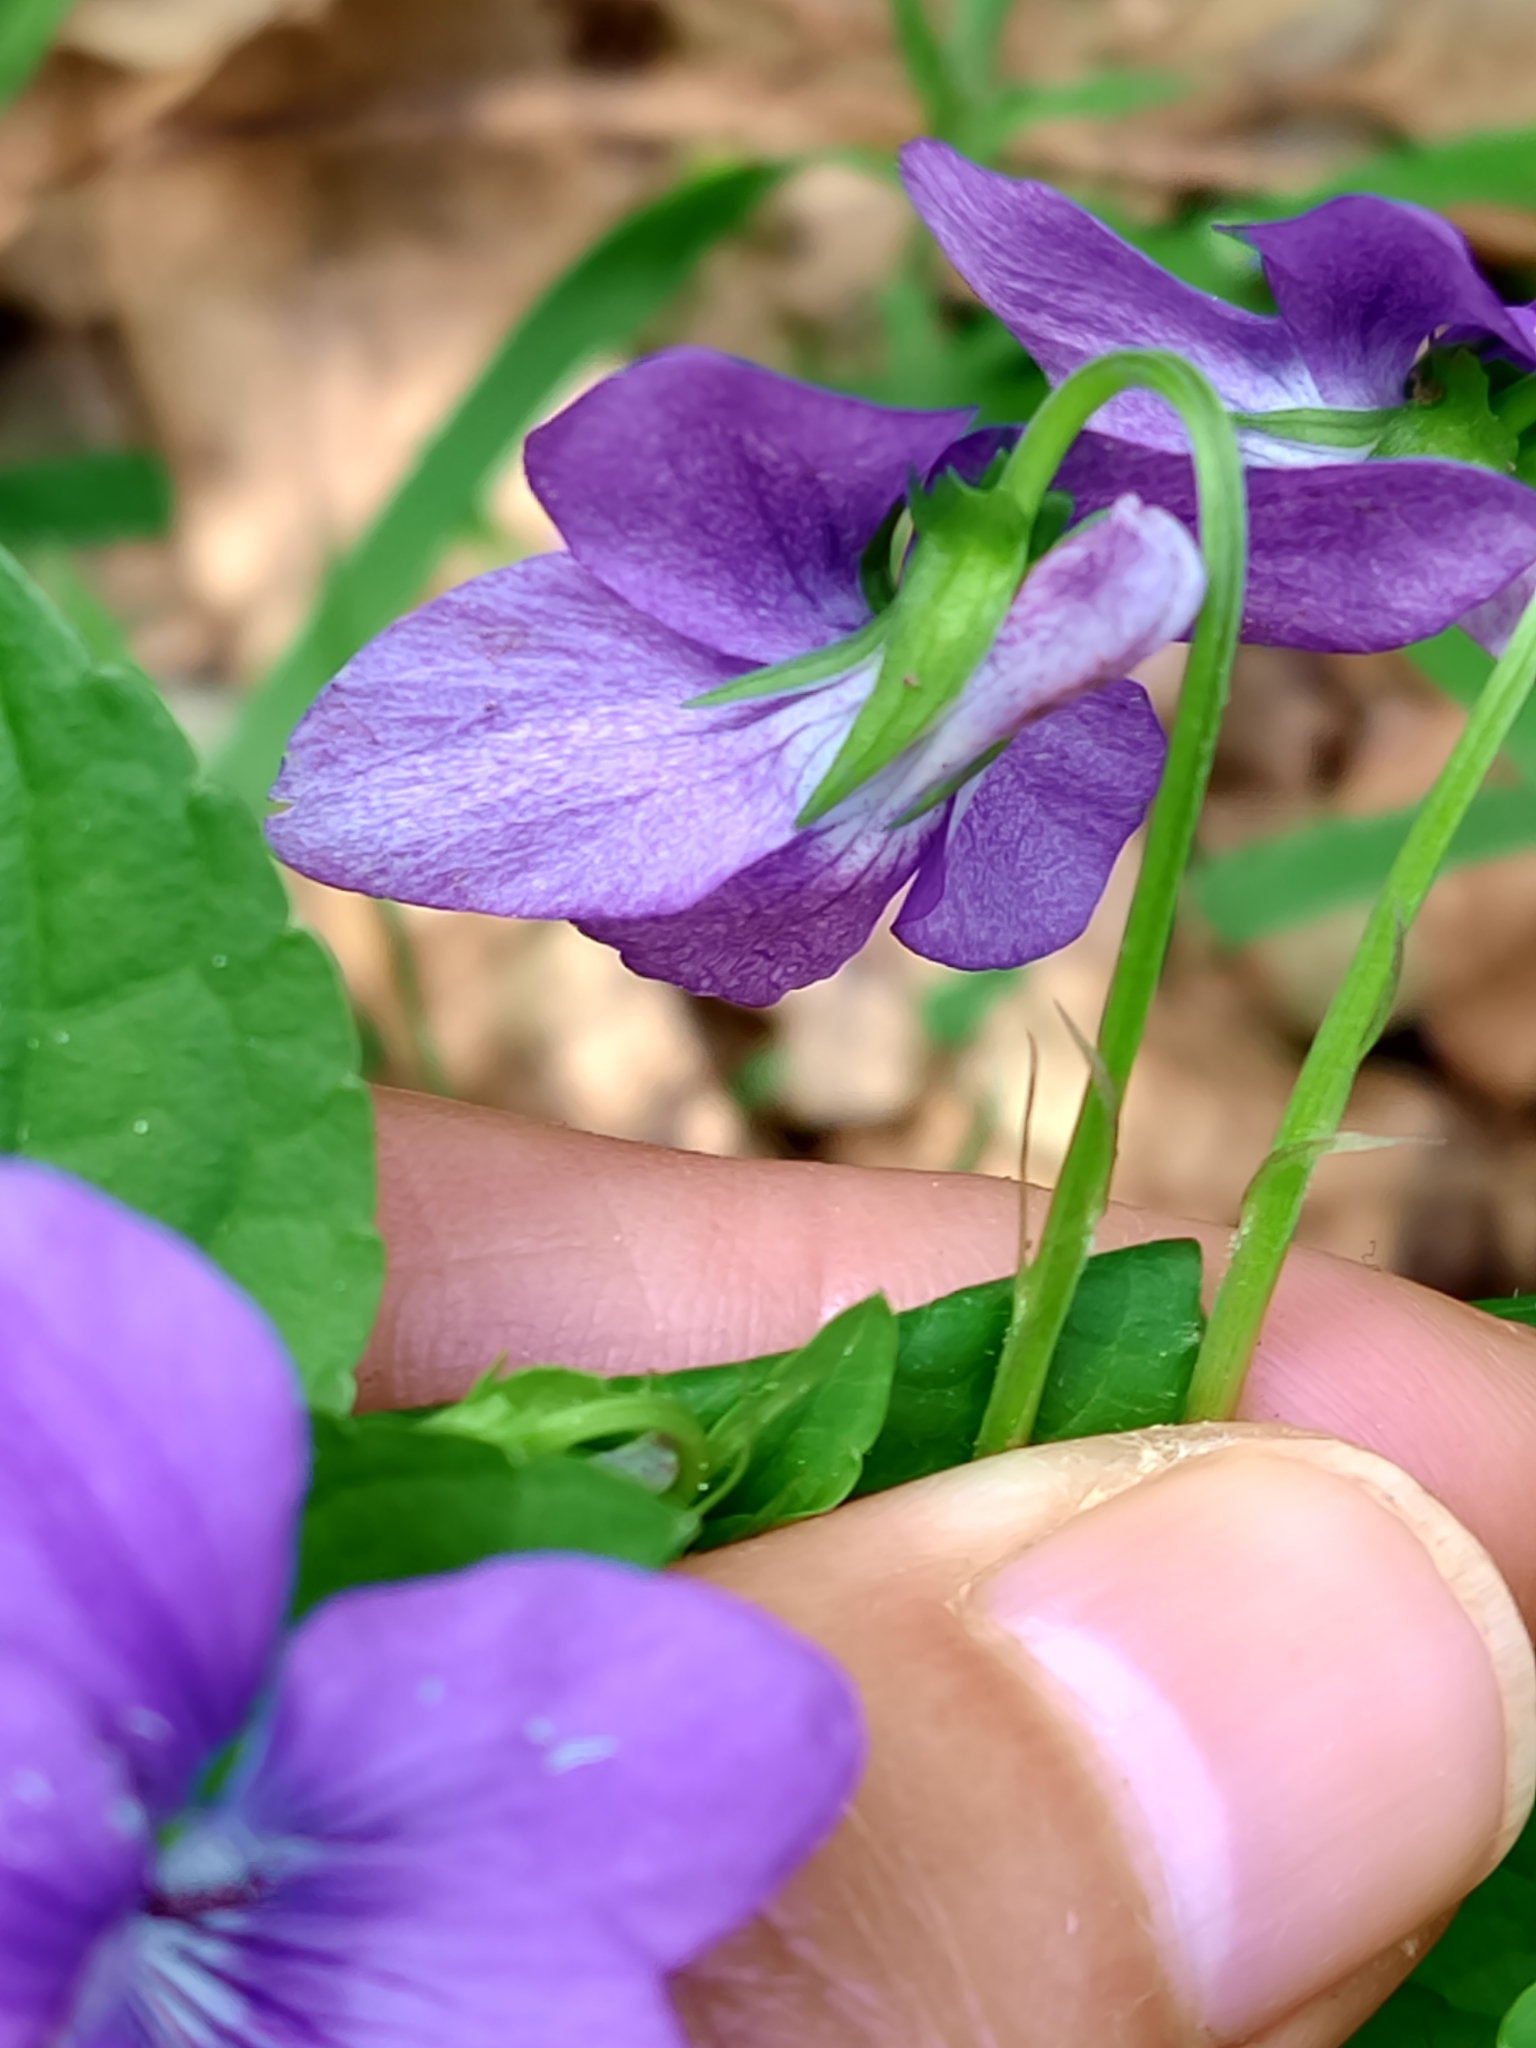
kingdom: Plantae
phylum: Tracheophyta
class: Magnoliopsida
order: Malpighiales
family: Violaceae
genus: Viola
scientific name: Viola riviniana
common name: Common dog-violet
